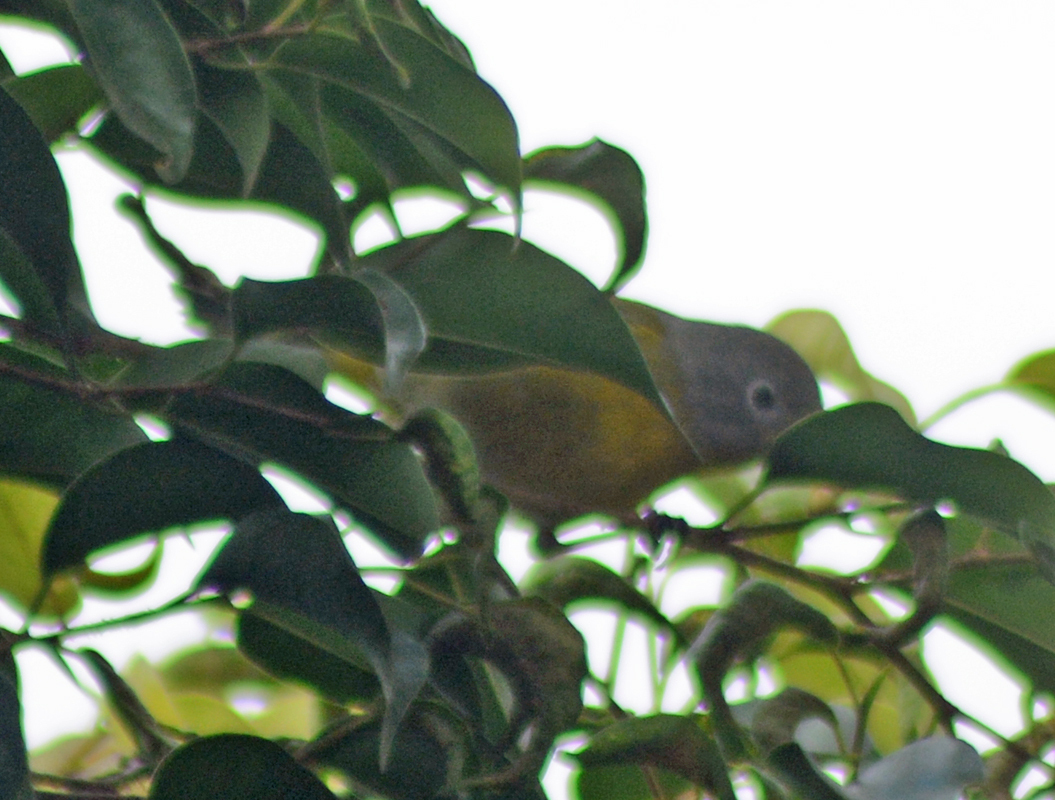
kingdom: Animalia
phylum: Chordata
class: Aves
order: Passeriformes
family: Parulidae
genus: Leiothlypis
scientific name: Leiothlypis ruficapilla
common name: Nashville warbler
